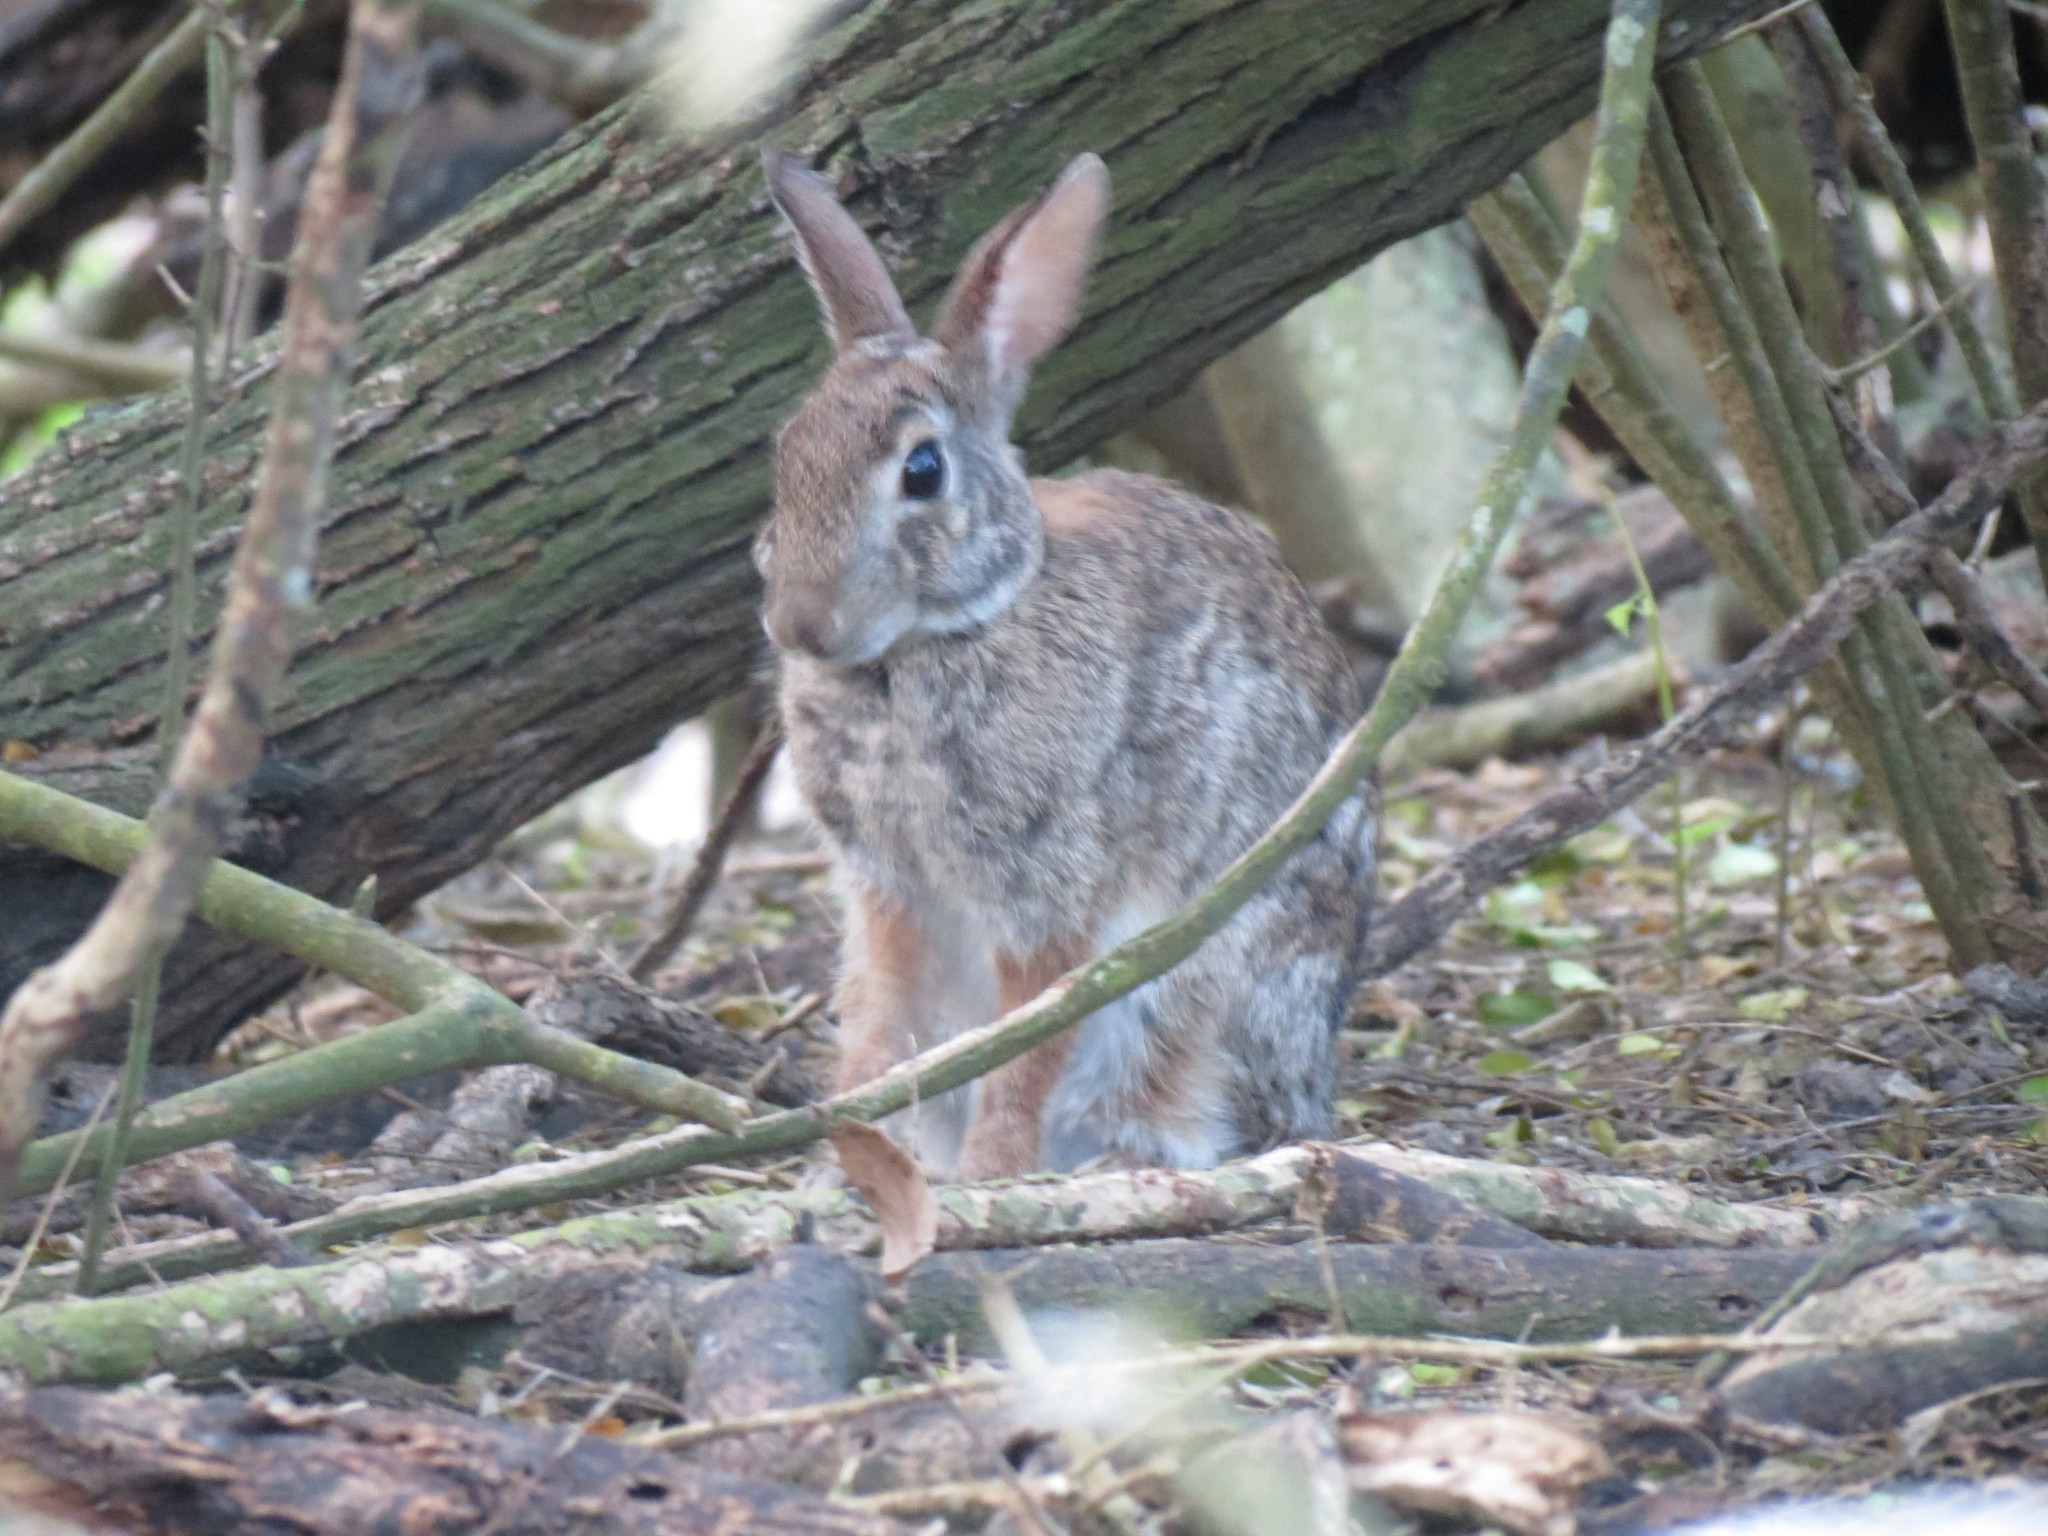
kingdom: Animalia
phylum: Chordata
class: Mammalia
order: Lagomorpha
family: Leporidae
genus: Sylvilagus
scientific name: Sylvilagus floridanus
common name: Eastern cottontail
